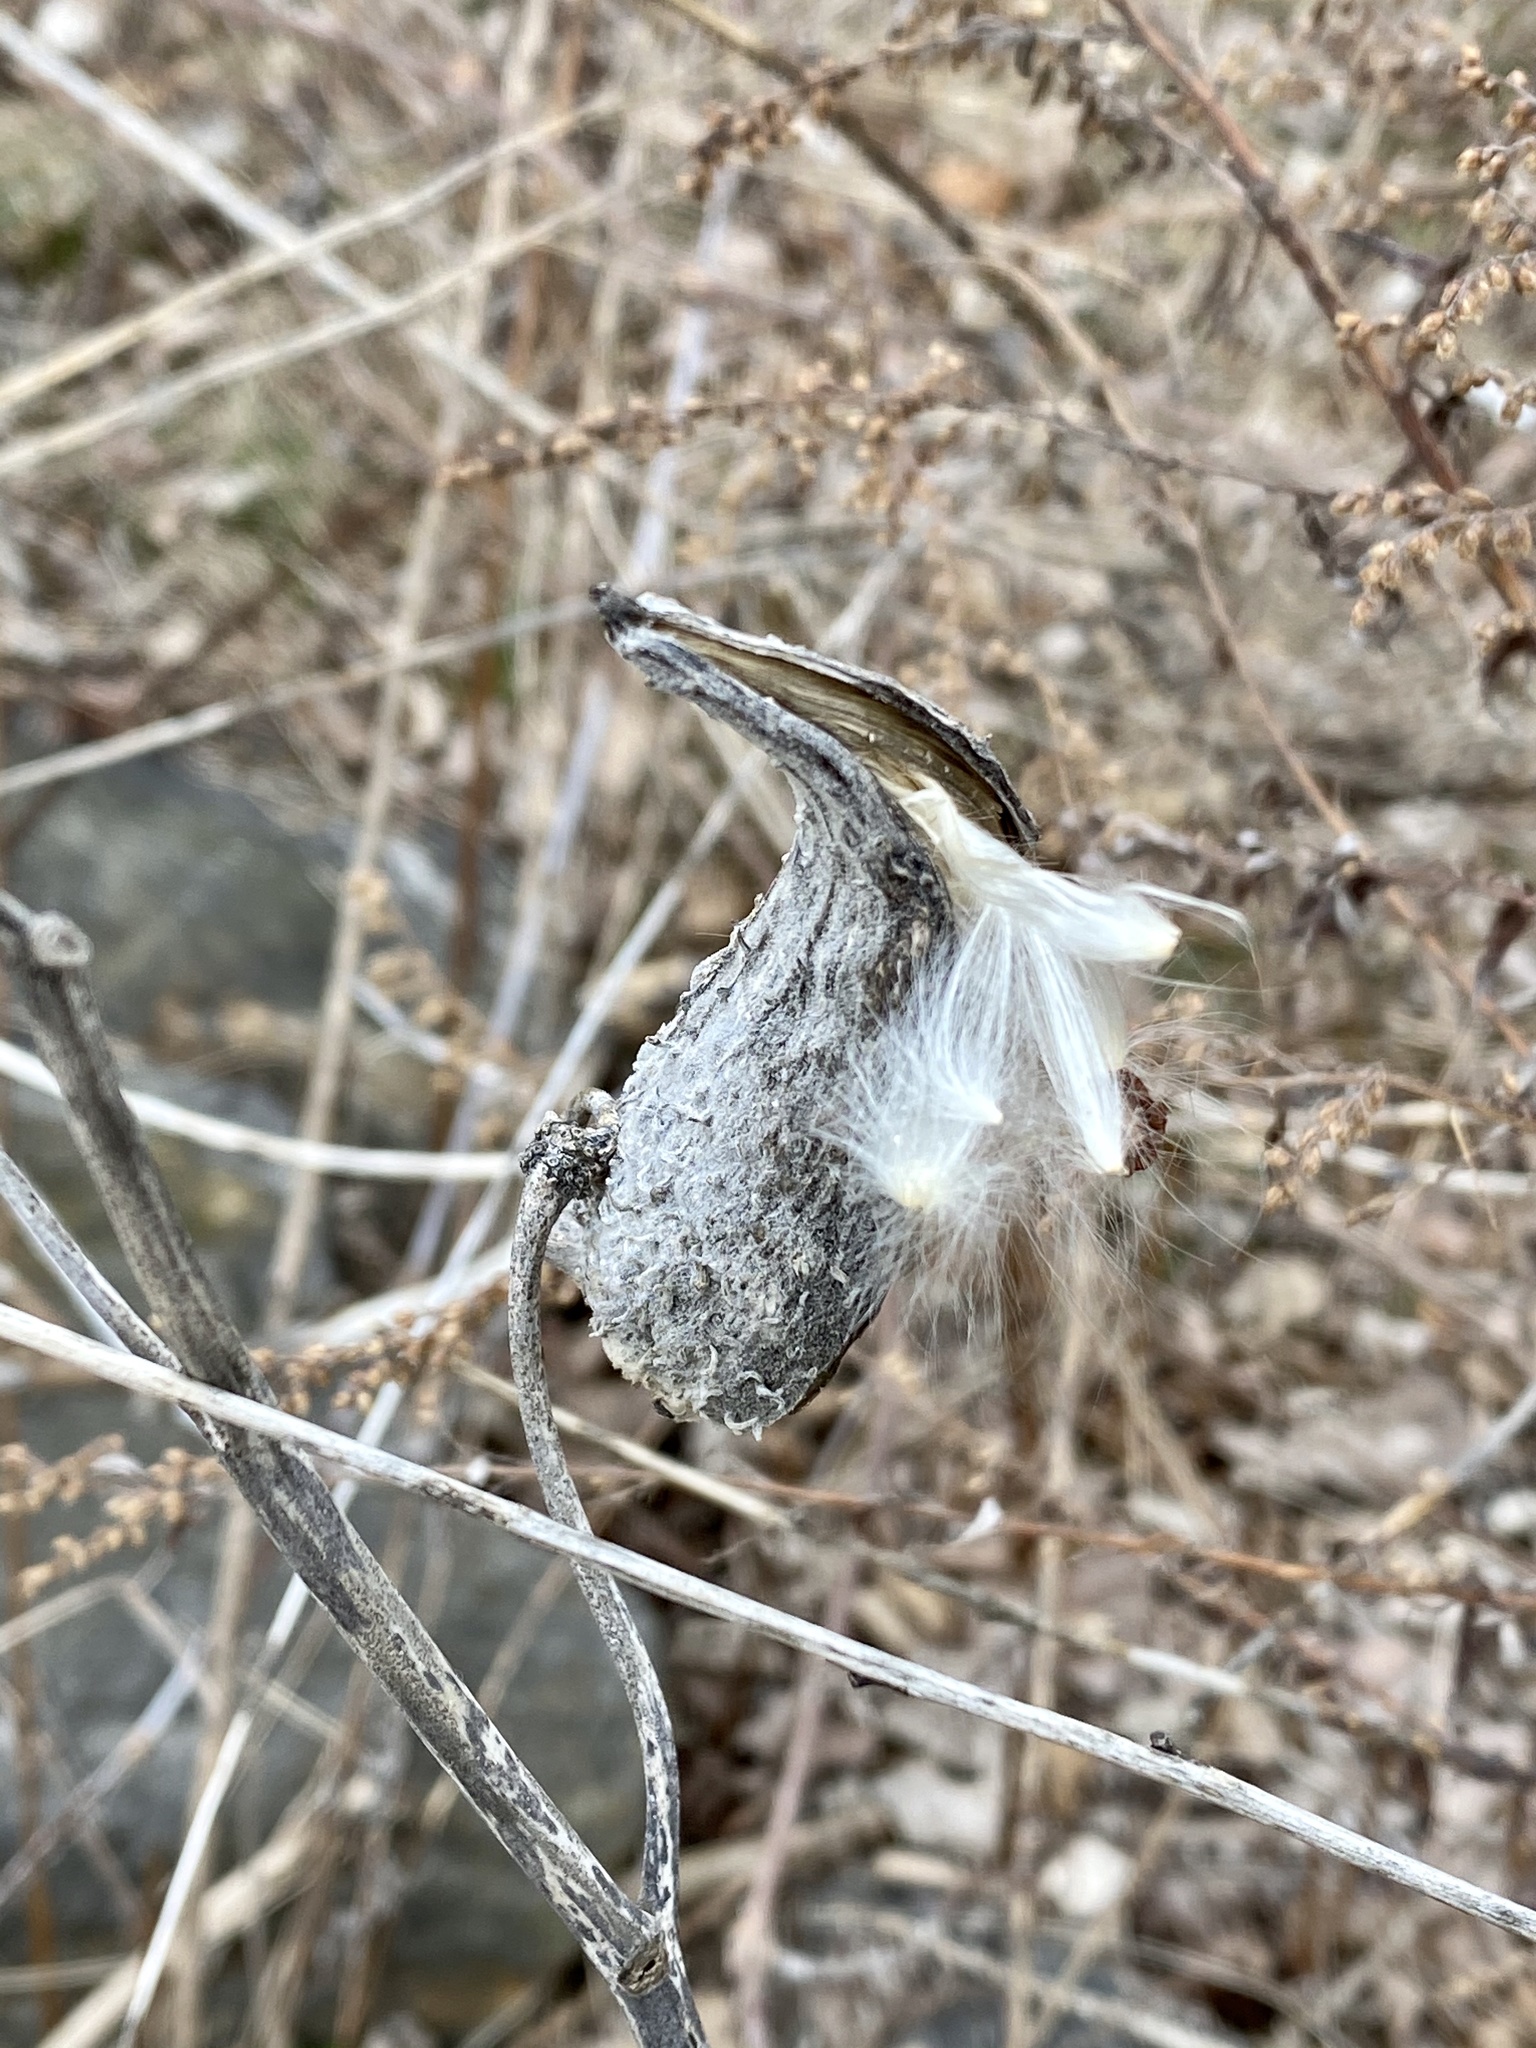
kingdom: Plantae
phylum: Tracheophyta
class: Magnoliopsida
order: Gentianales
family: Apocynaceae
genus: Asclepias
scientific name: Asclepias syriaca
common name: Common milkweed
